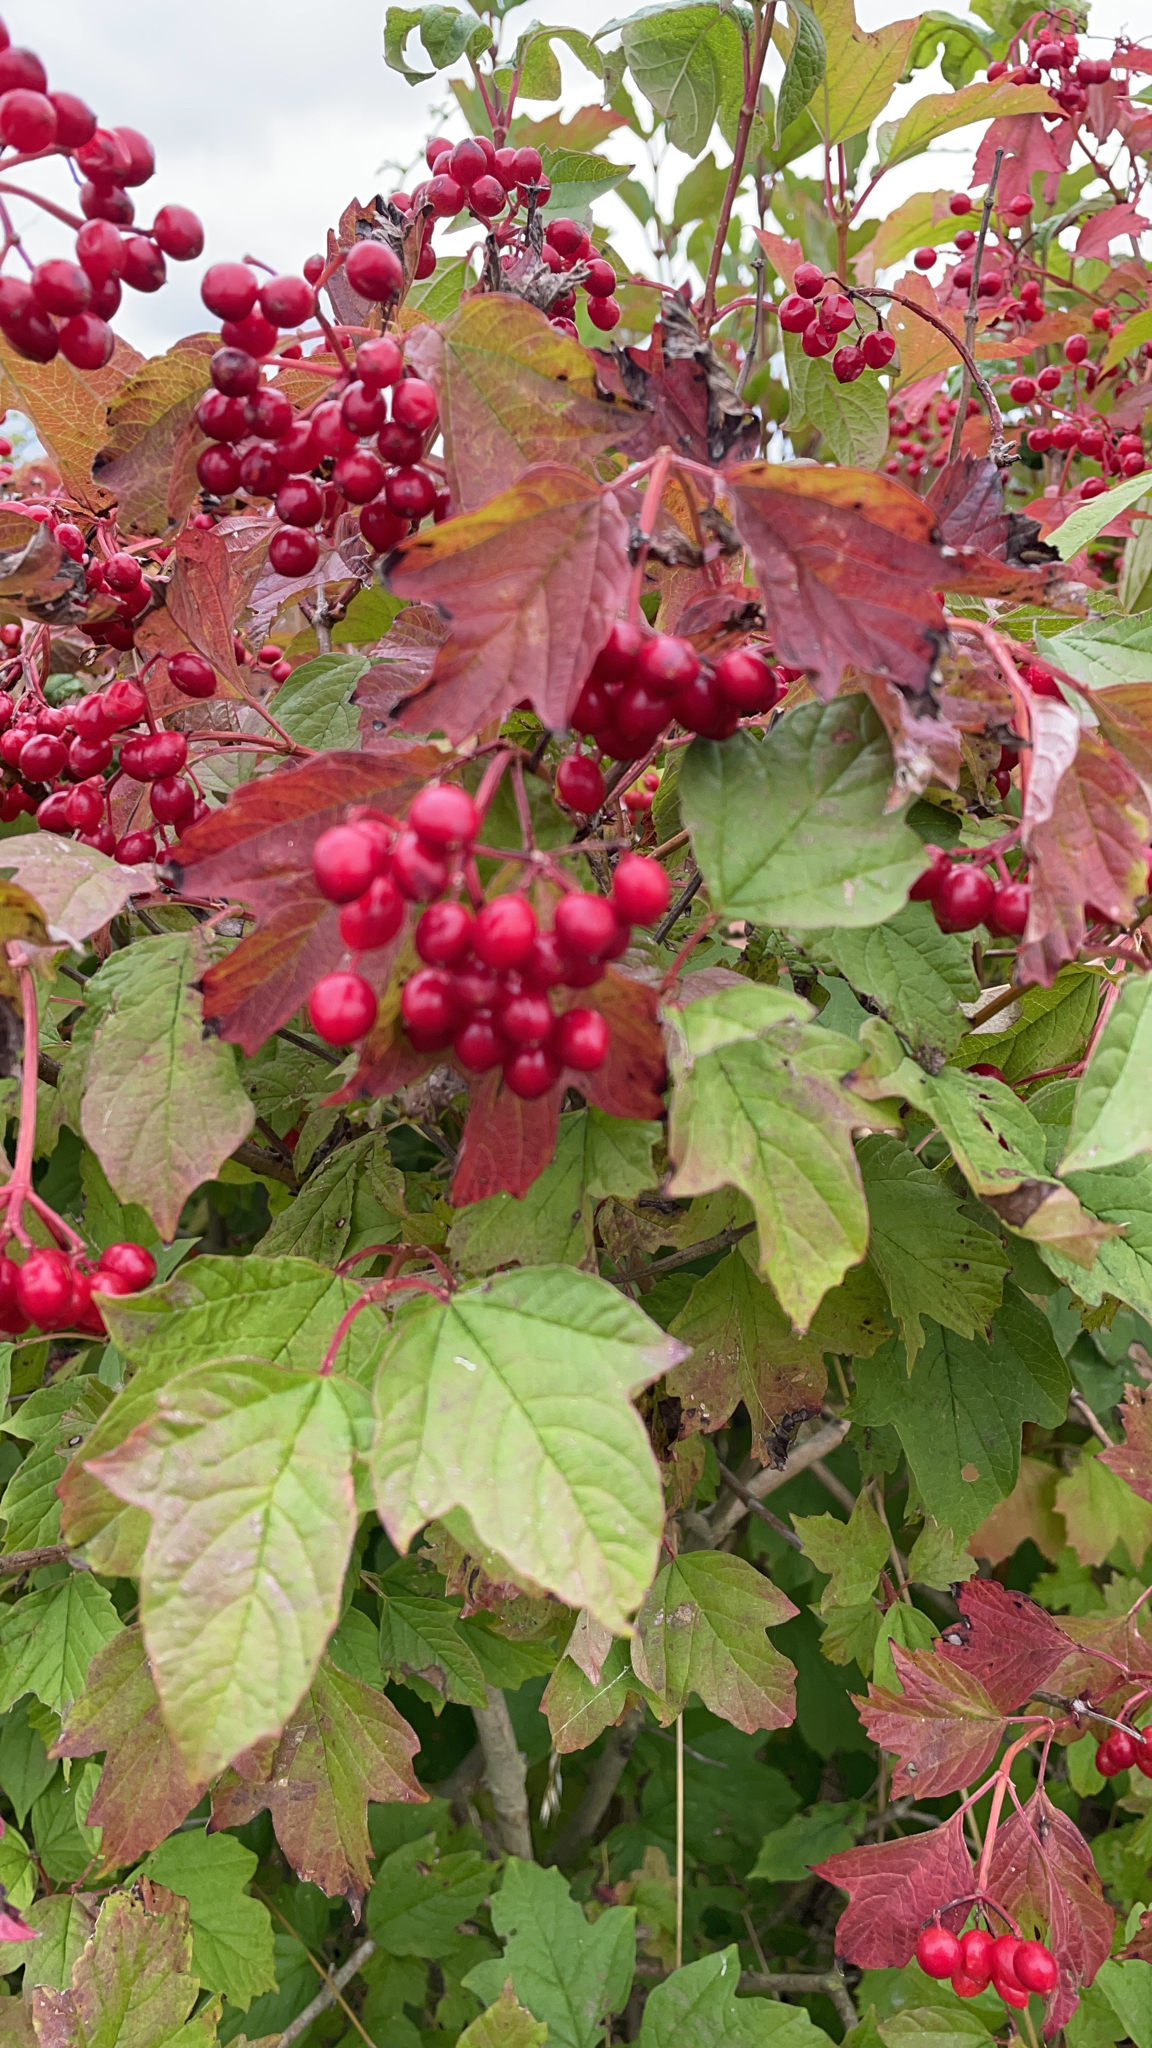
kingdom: Plantae
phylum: Tracheophyta
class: Magnoliopsida
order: Dipsacales
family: Viburnaceae
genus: Viburnum
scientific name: Viburnum opulus
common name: Guelder-rose
